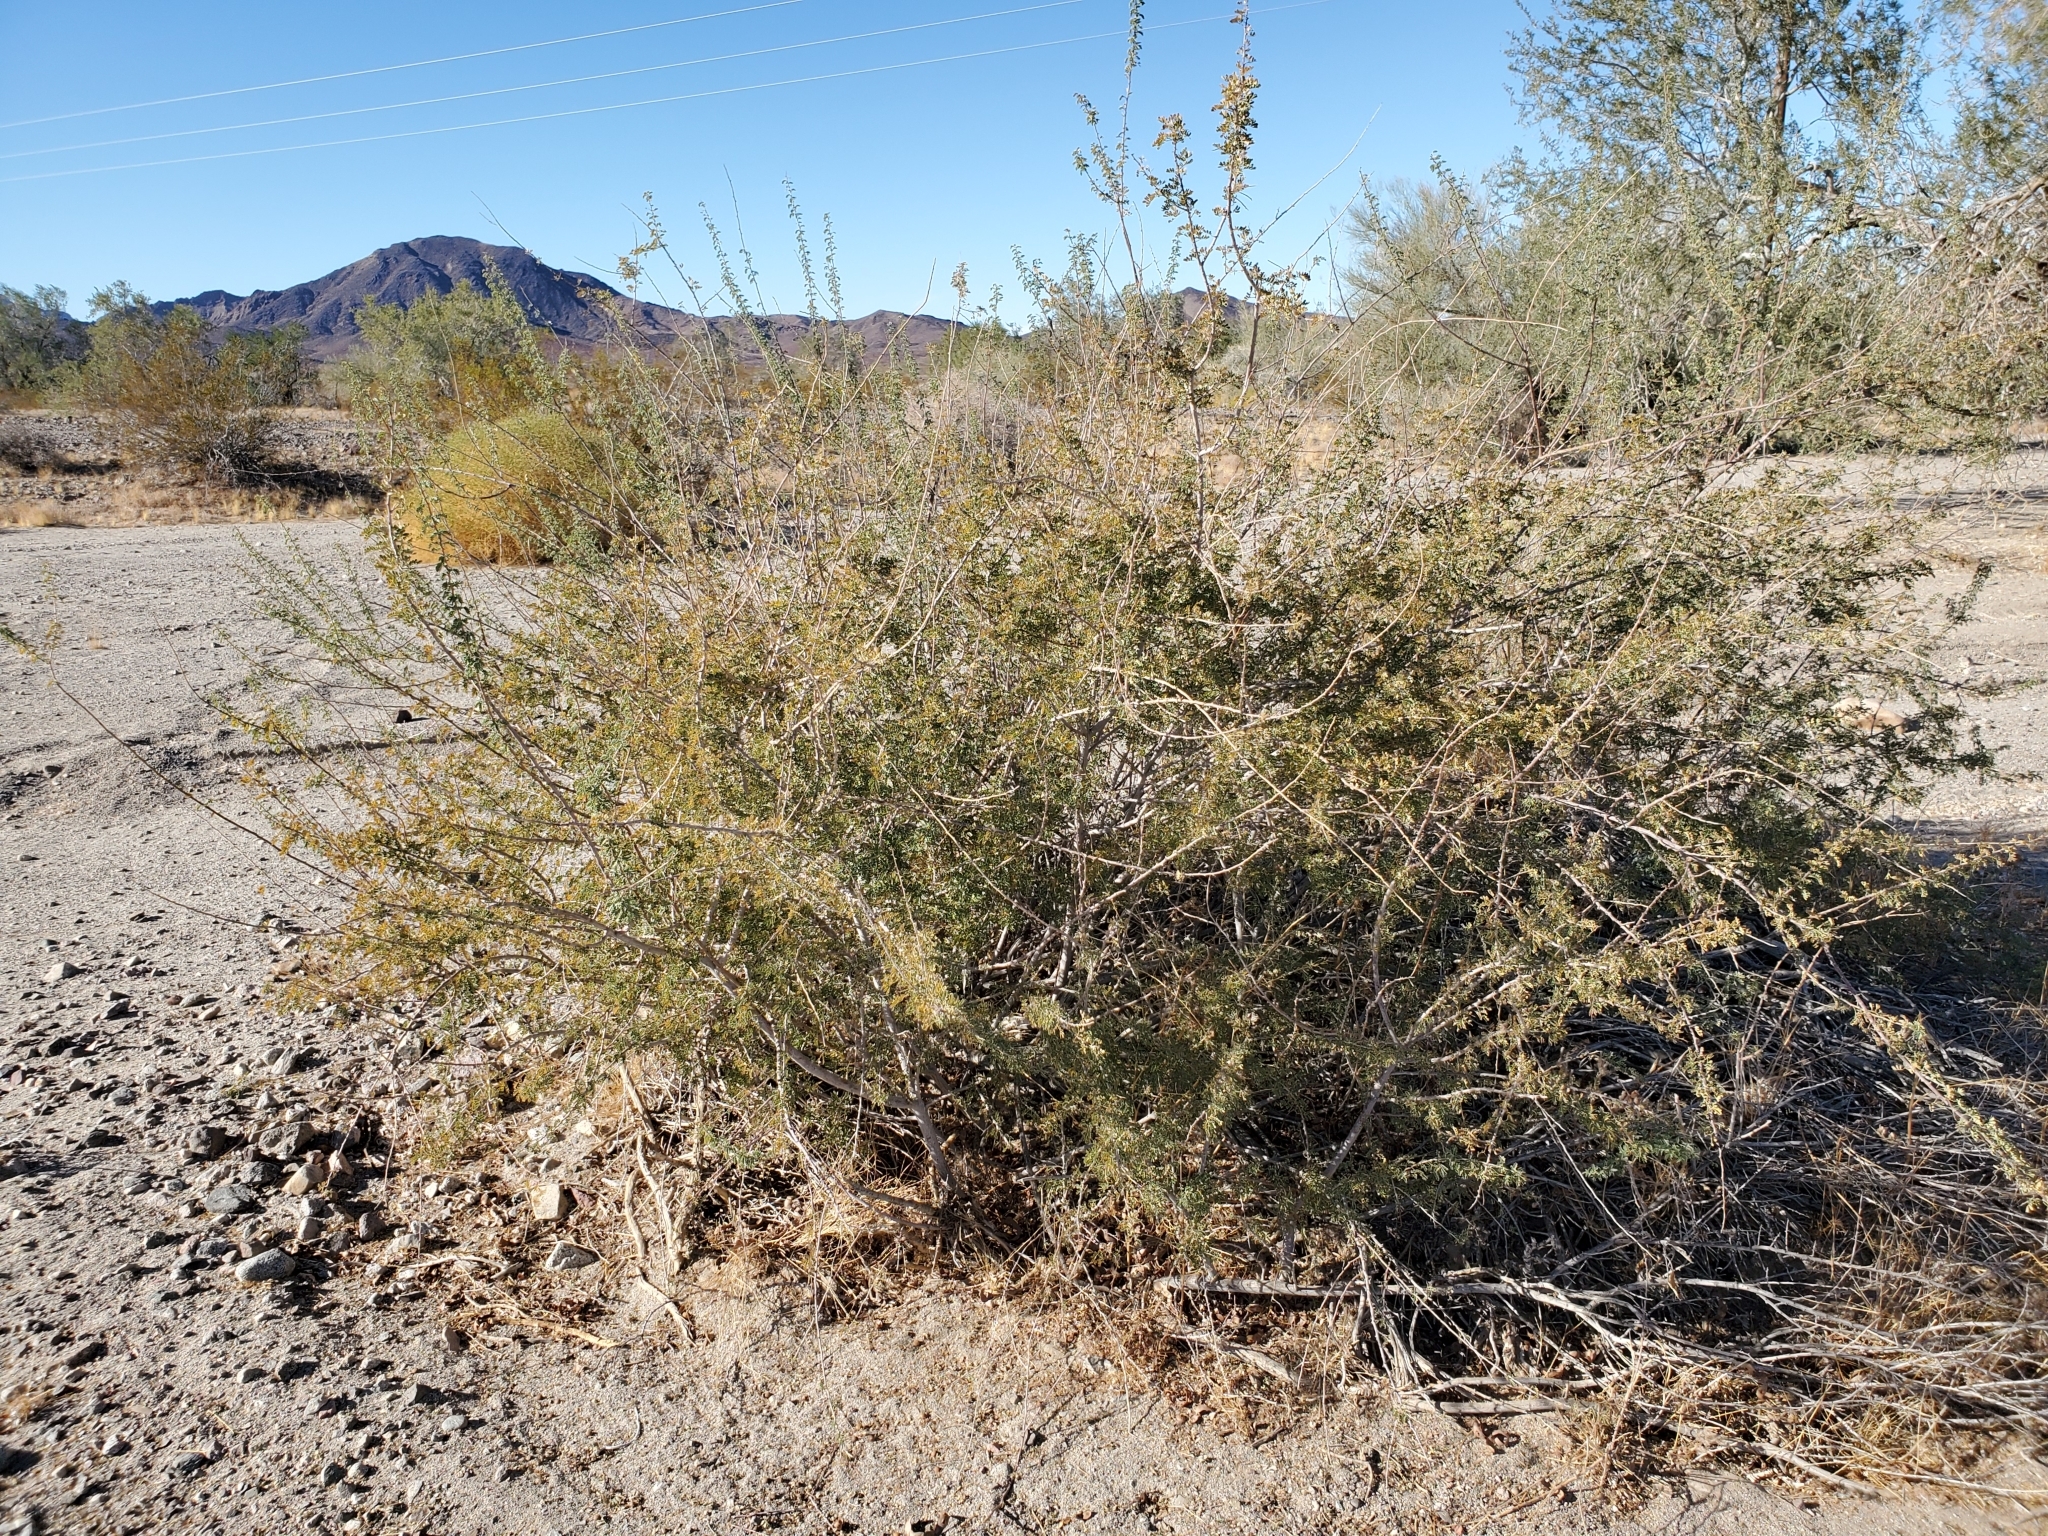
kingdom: Plantae
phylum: Tracheophyta
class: Magnoliopsida
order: Fabales
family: Fabaceae
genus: Senegalia
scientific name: Senegalia greggii
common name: Texas-mimosa
